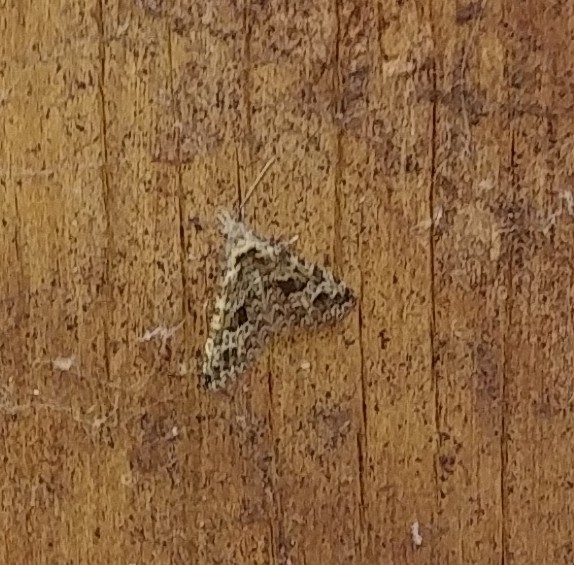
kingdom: Animalia
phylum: Arthropoda
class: Insecta
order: Lepidoptera
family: Alucitidae
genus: Alucita
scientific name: Alucita montana
